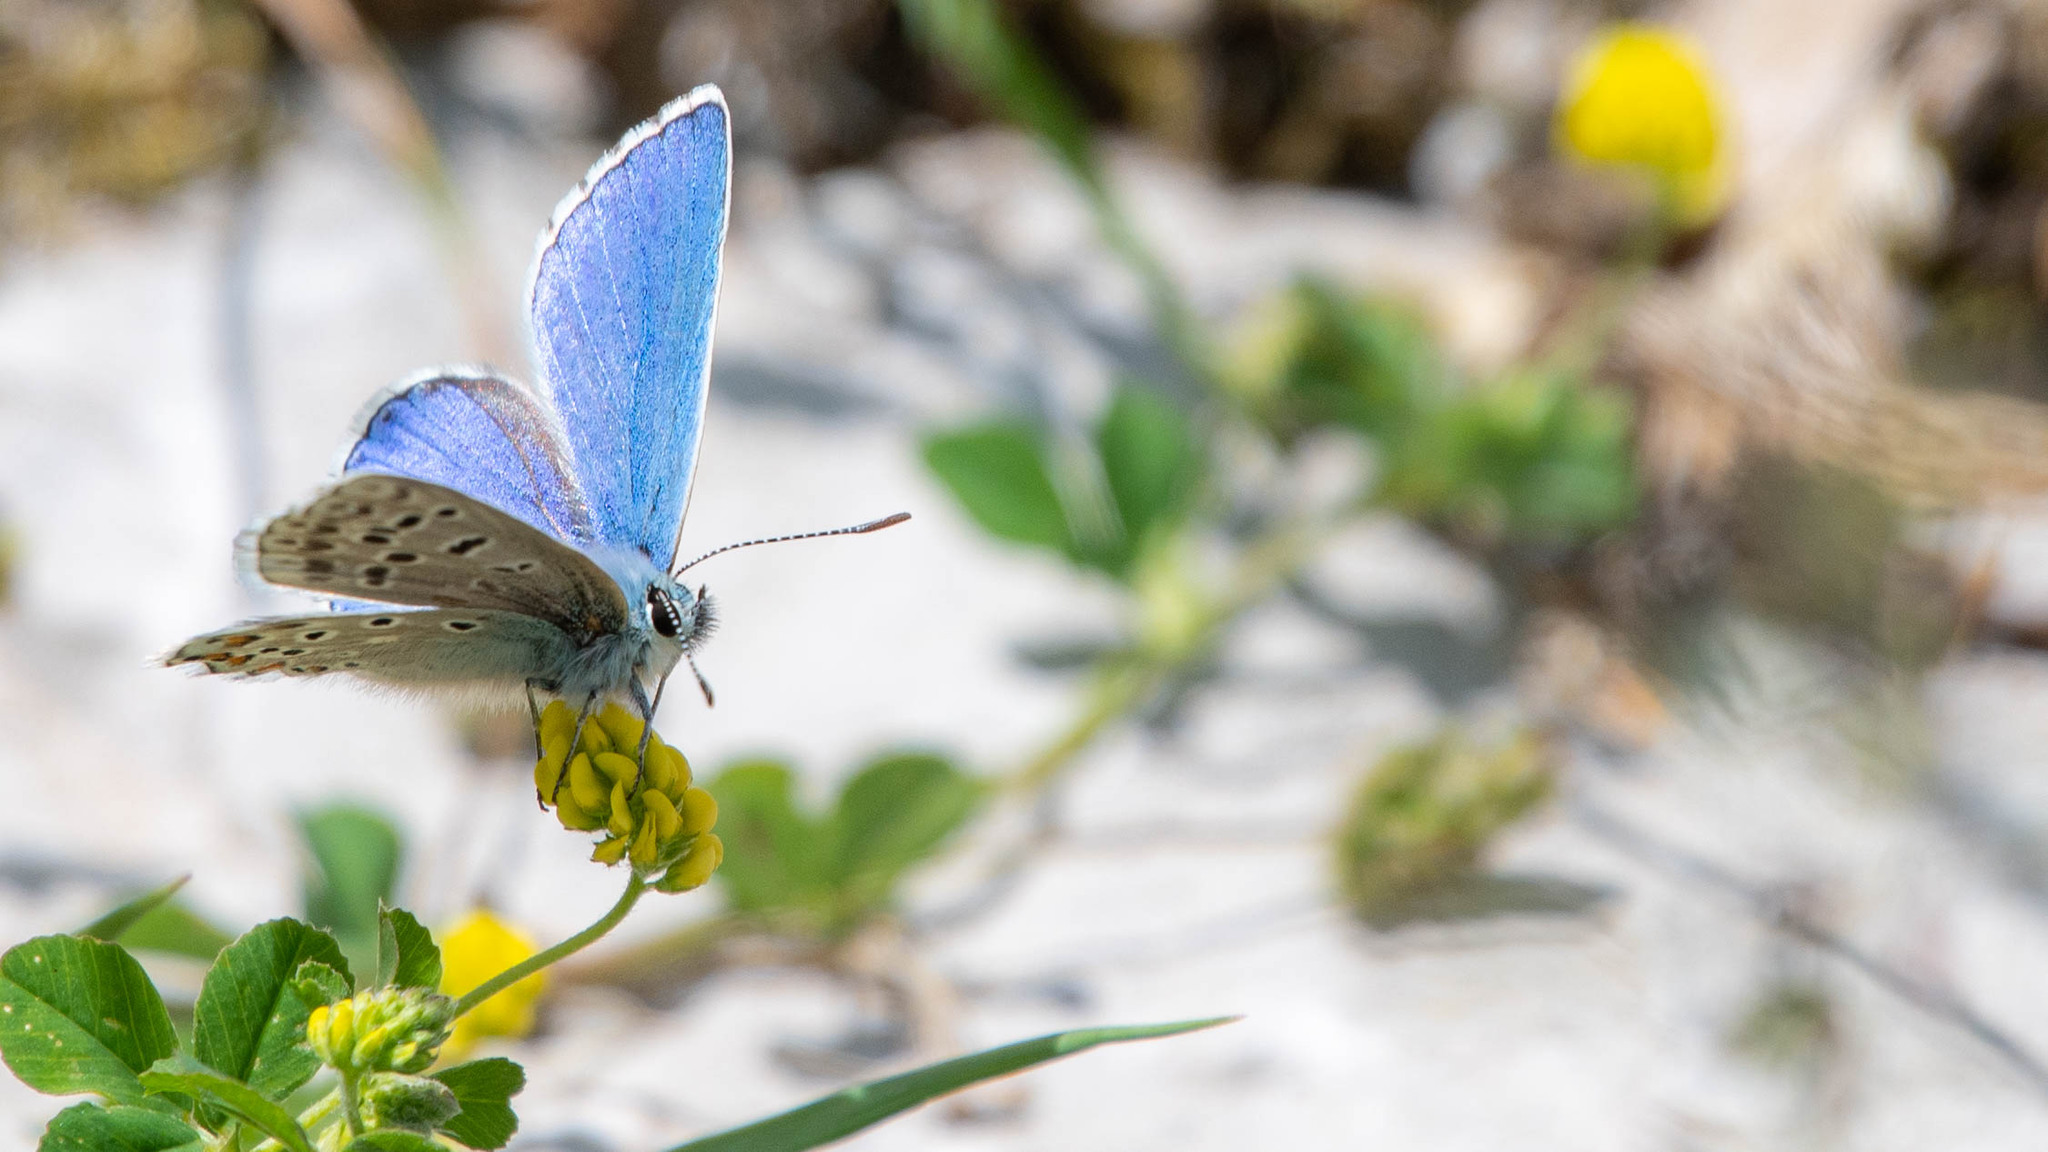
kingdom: Animalia
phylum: Arthropoda
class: Insecta
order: Lepidoptera
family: Lycaenidae
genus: Lysandra
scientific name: Lysandra bellargus
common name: Adonis blue
